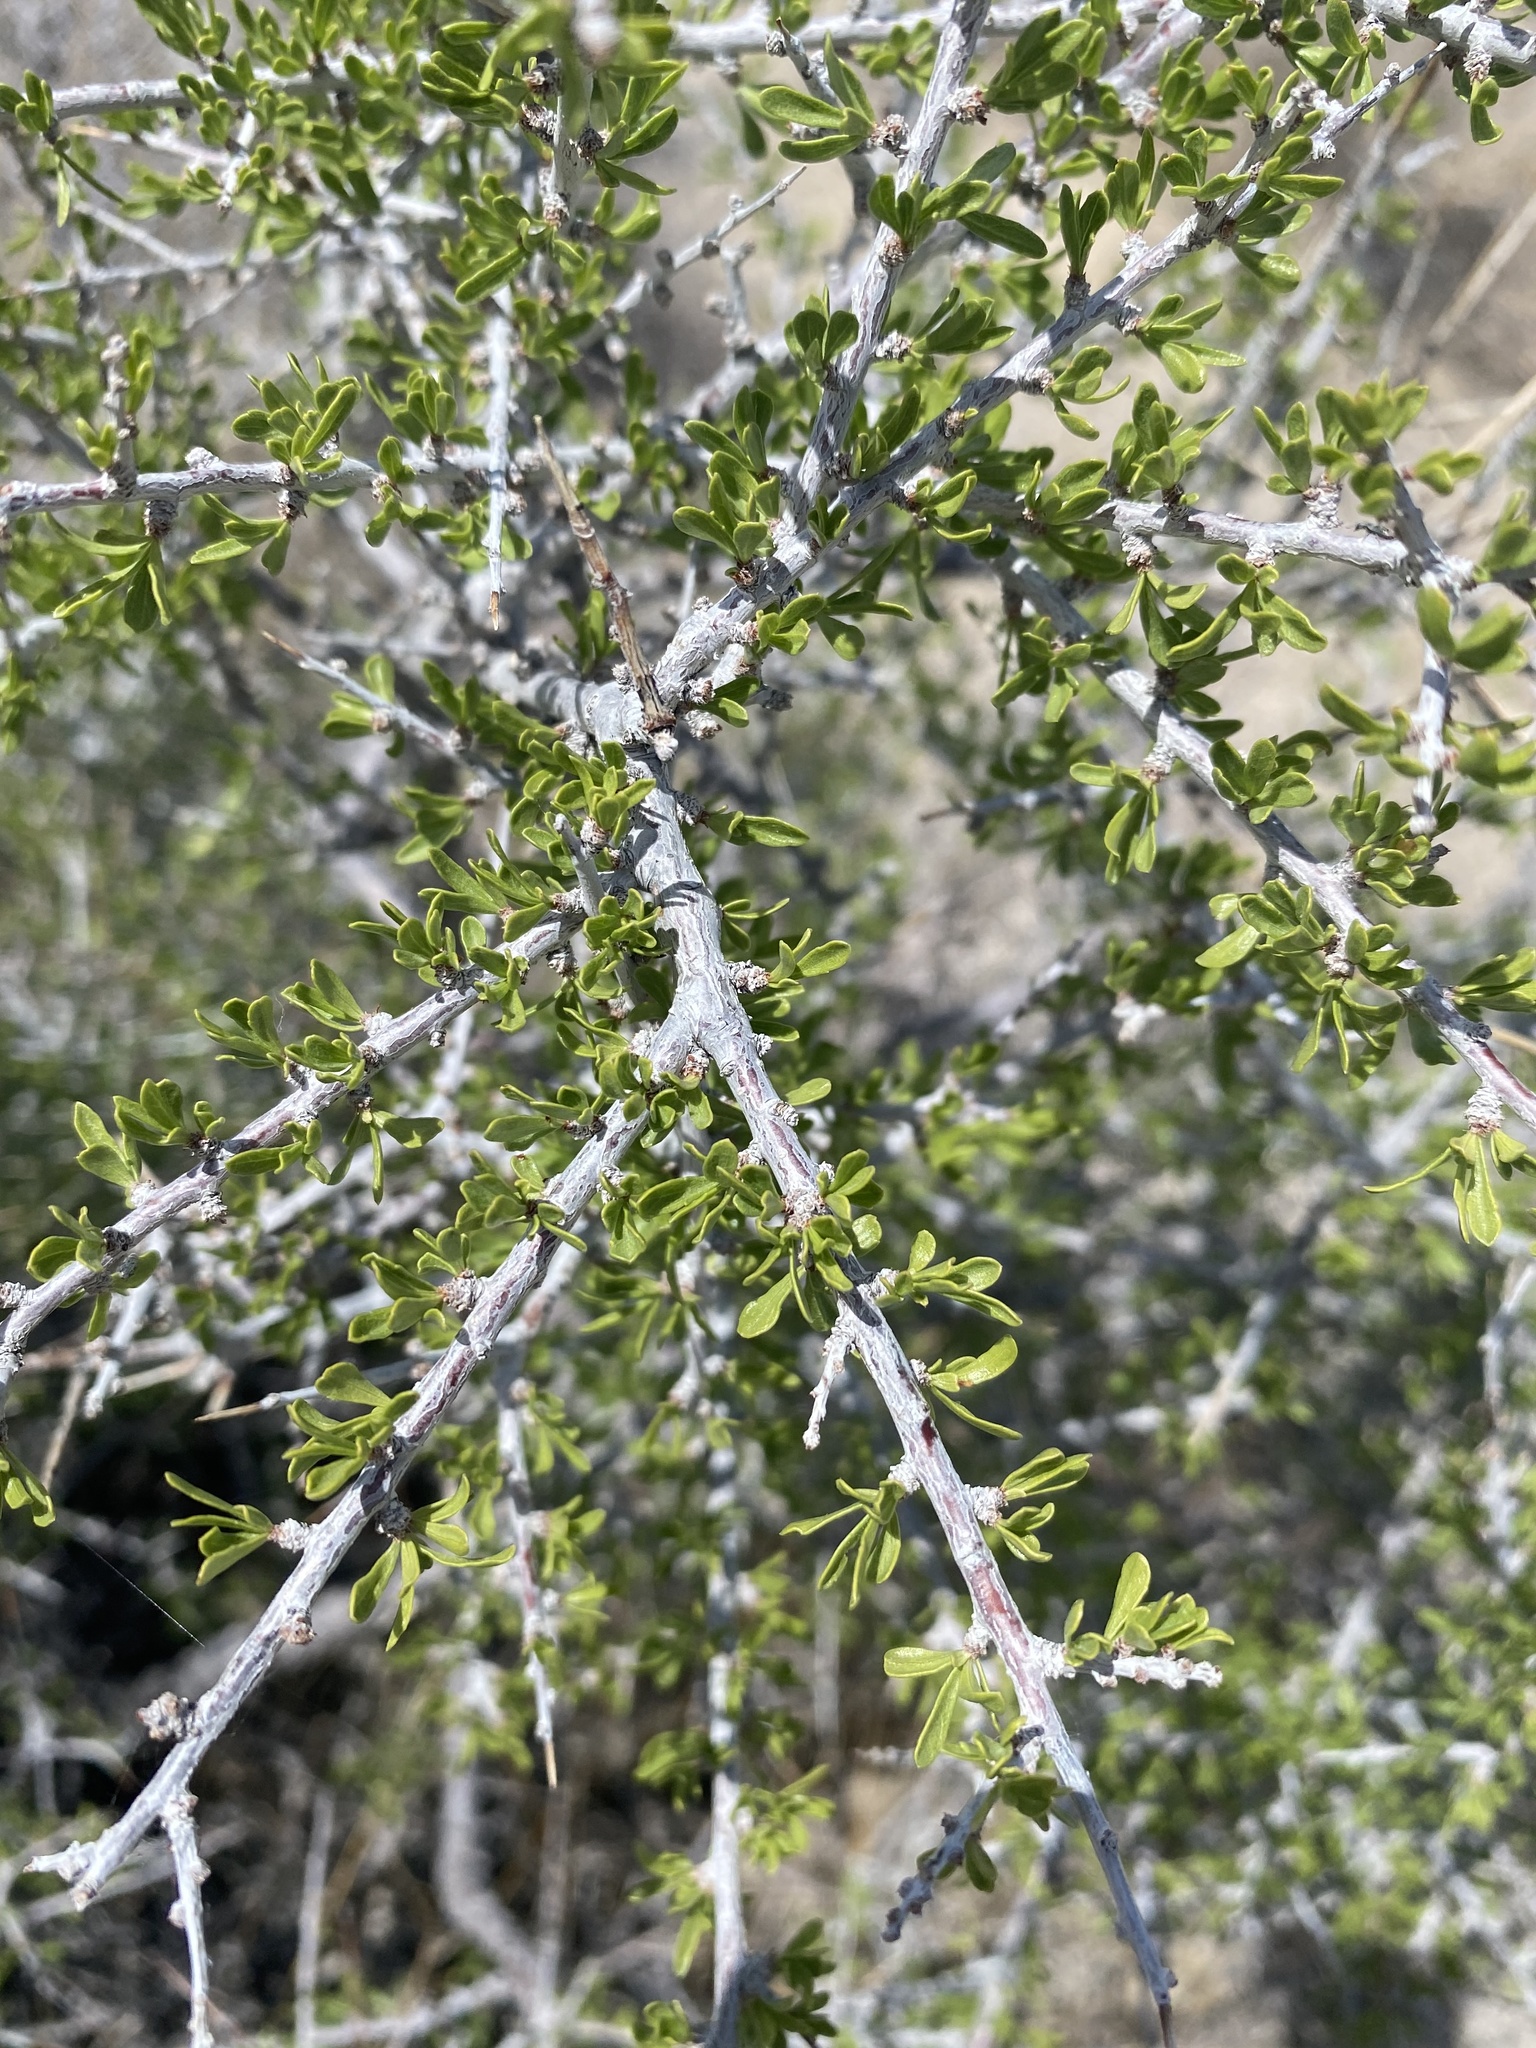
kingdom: Plantae
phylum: Tracheophyta
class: Magnoliopsida
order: Rosales
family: Rosaceae
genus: Prunus
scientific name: Prunus fasciculata
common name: Desert almond
